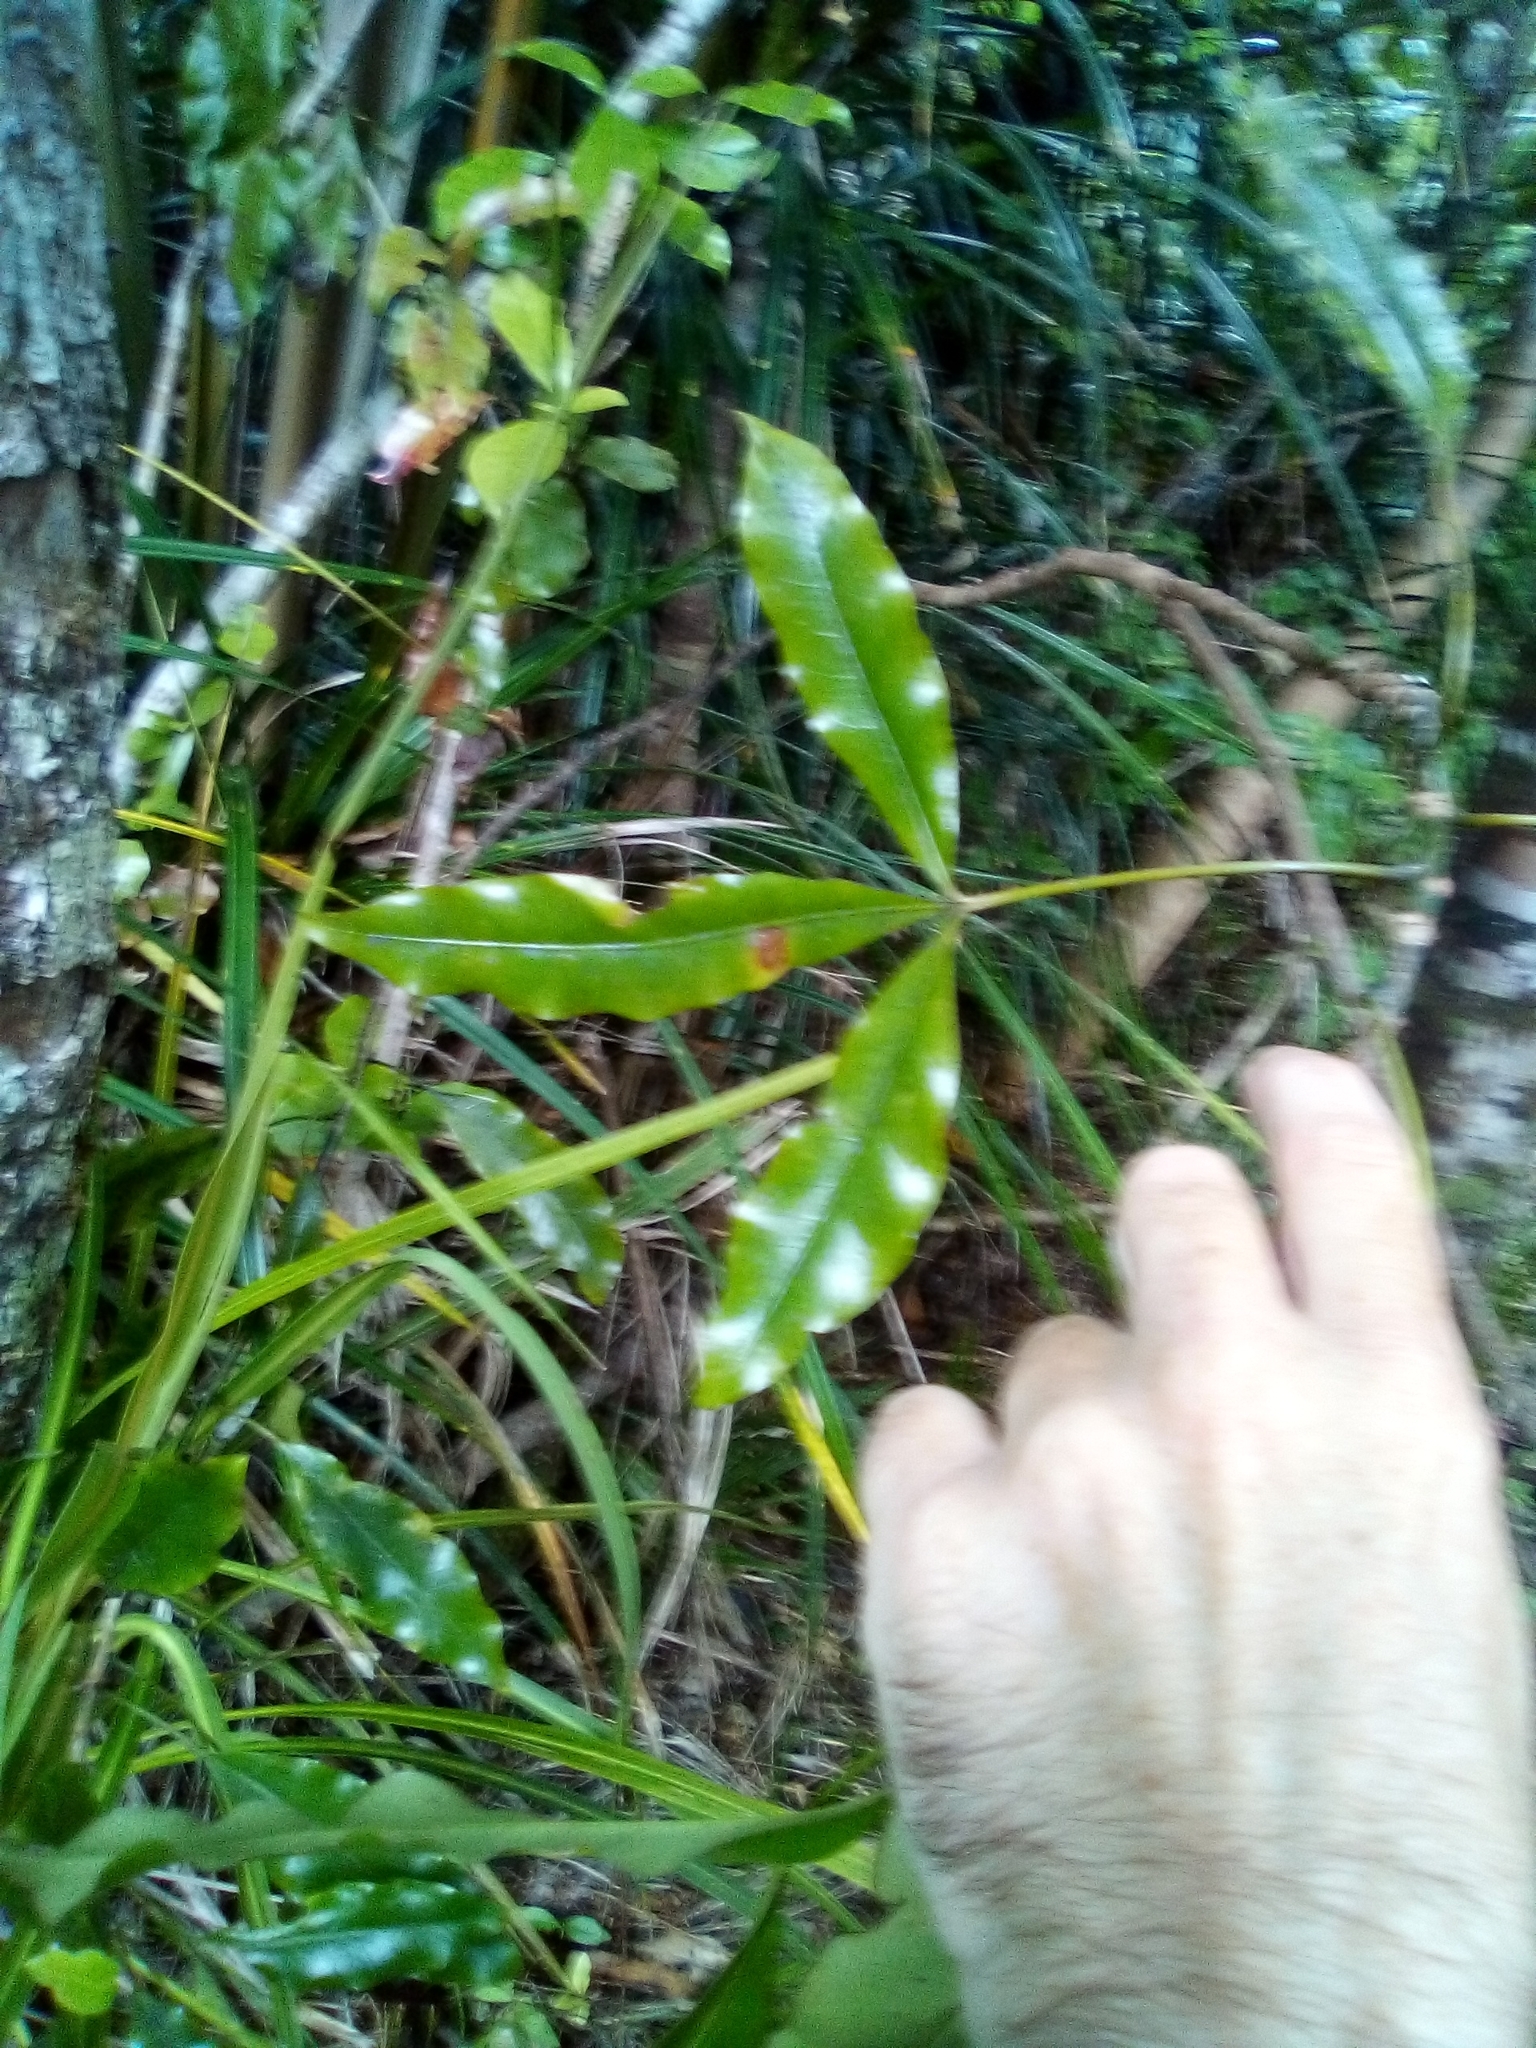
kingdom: Plantae
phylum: Tracheophyta
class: Magnoliopsida
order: Apiales
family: Araliaceae
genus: Raukaua
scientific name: Raukaua edgerleyi
